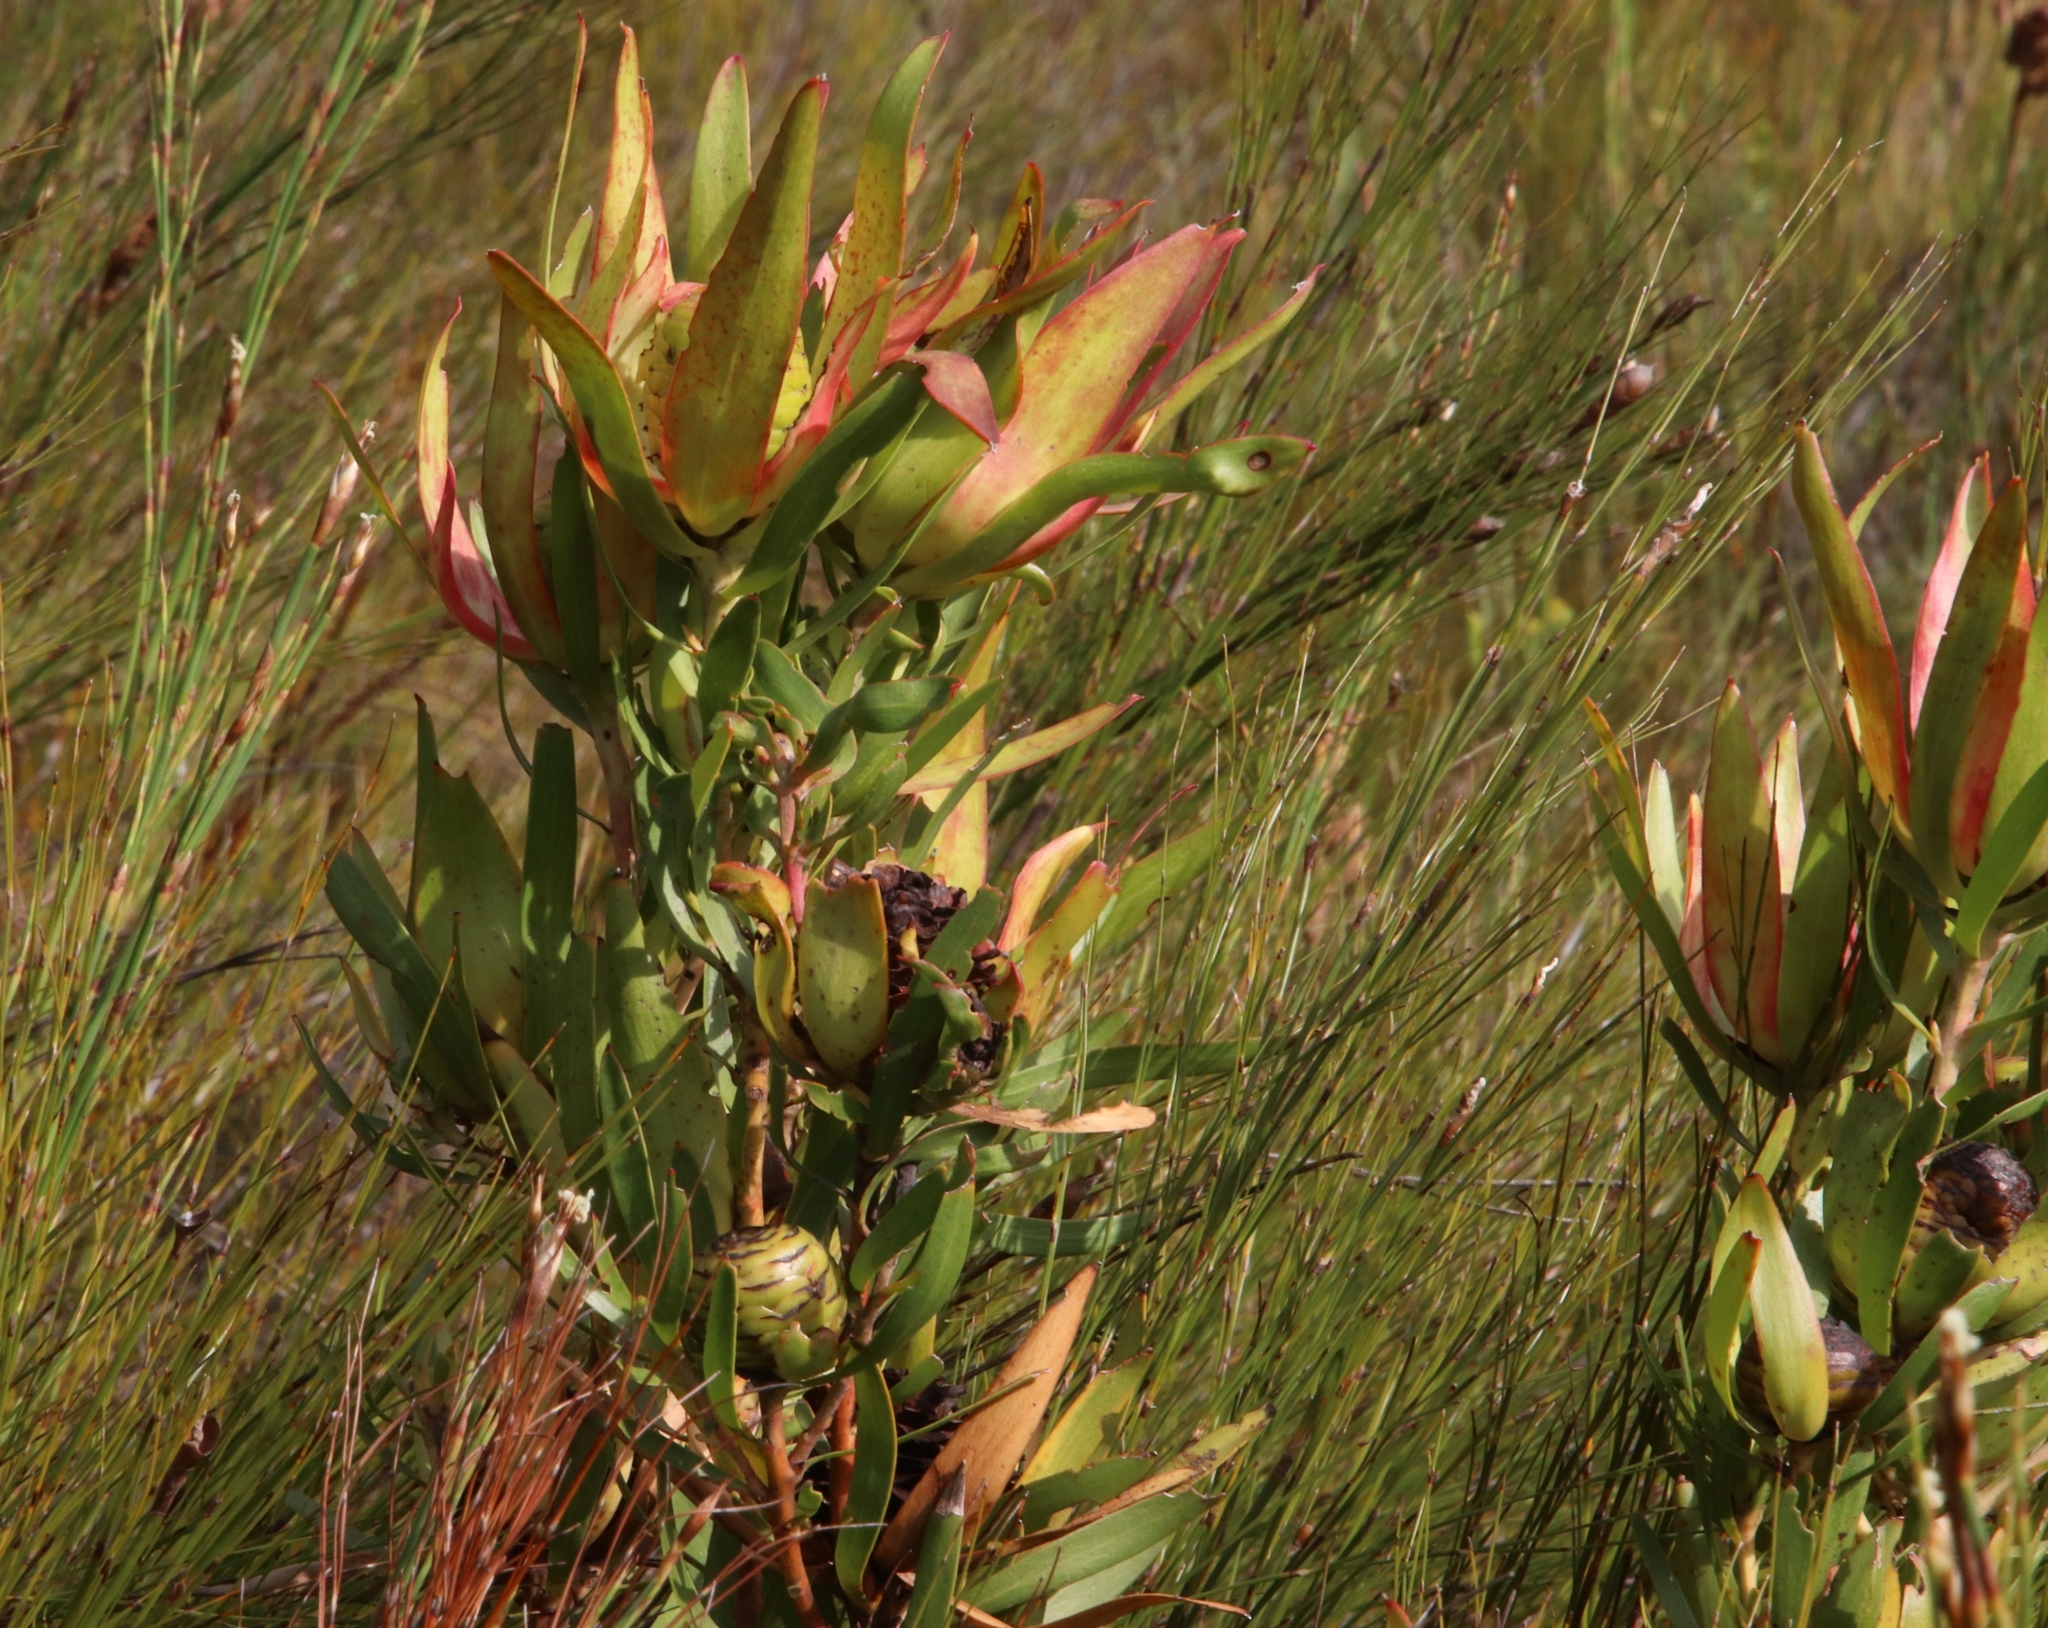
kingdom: Plantae
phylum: Tracheophyta
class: Magnoliopsida
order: Proteales
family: Proteaceae
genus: Leucadendron
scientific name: Leucadendron spissifolium
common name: Spear-leaf conebush
